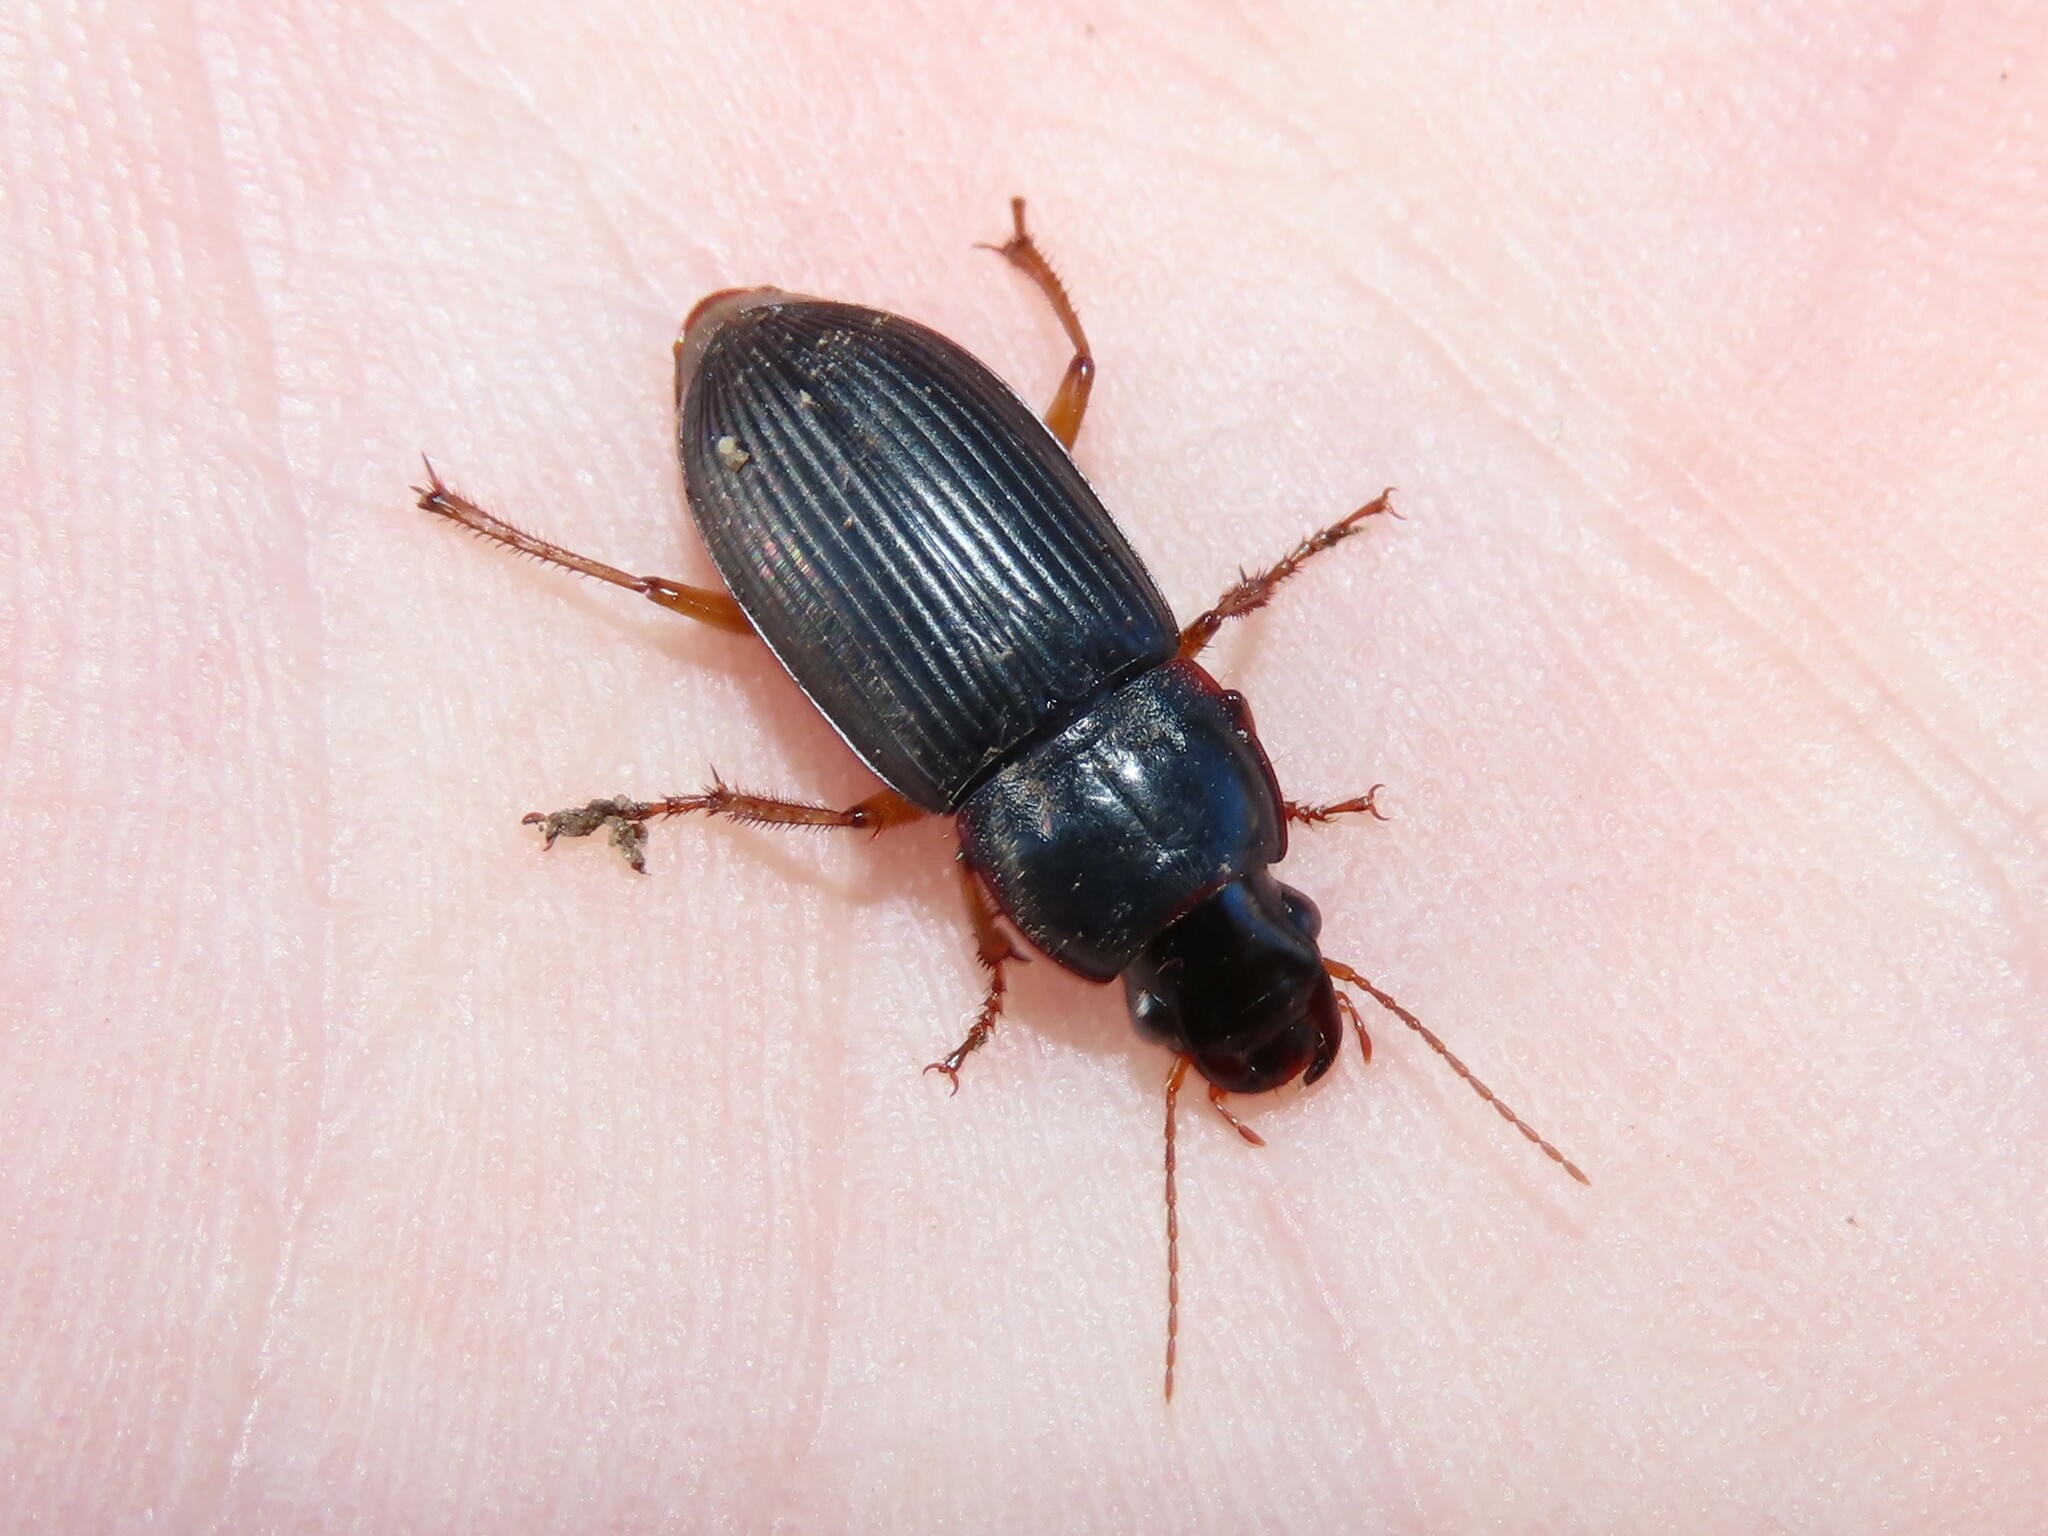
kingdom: Animalia
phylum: Arthropoda
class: Insecta
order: Coleoptera
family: Carabidae
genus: Harpalus
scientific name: Harpalus pensylvanicus
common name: Pennsylvania dingy ground beetle
